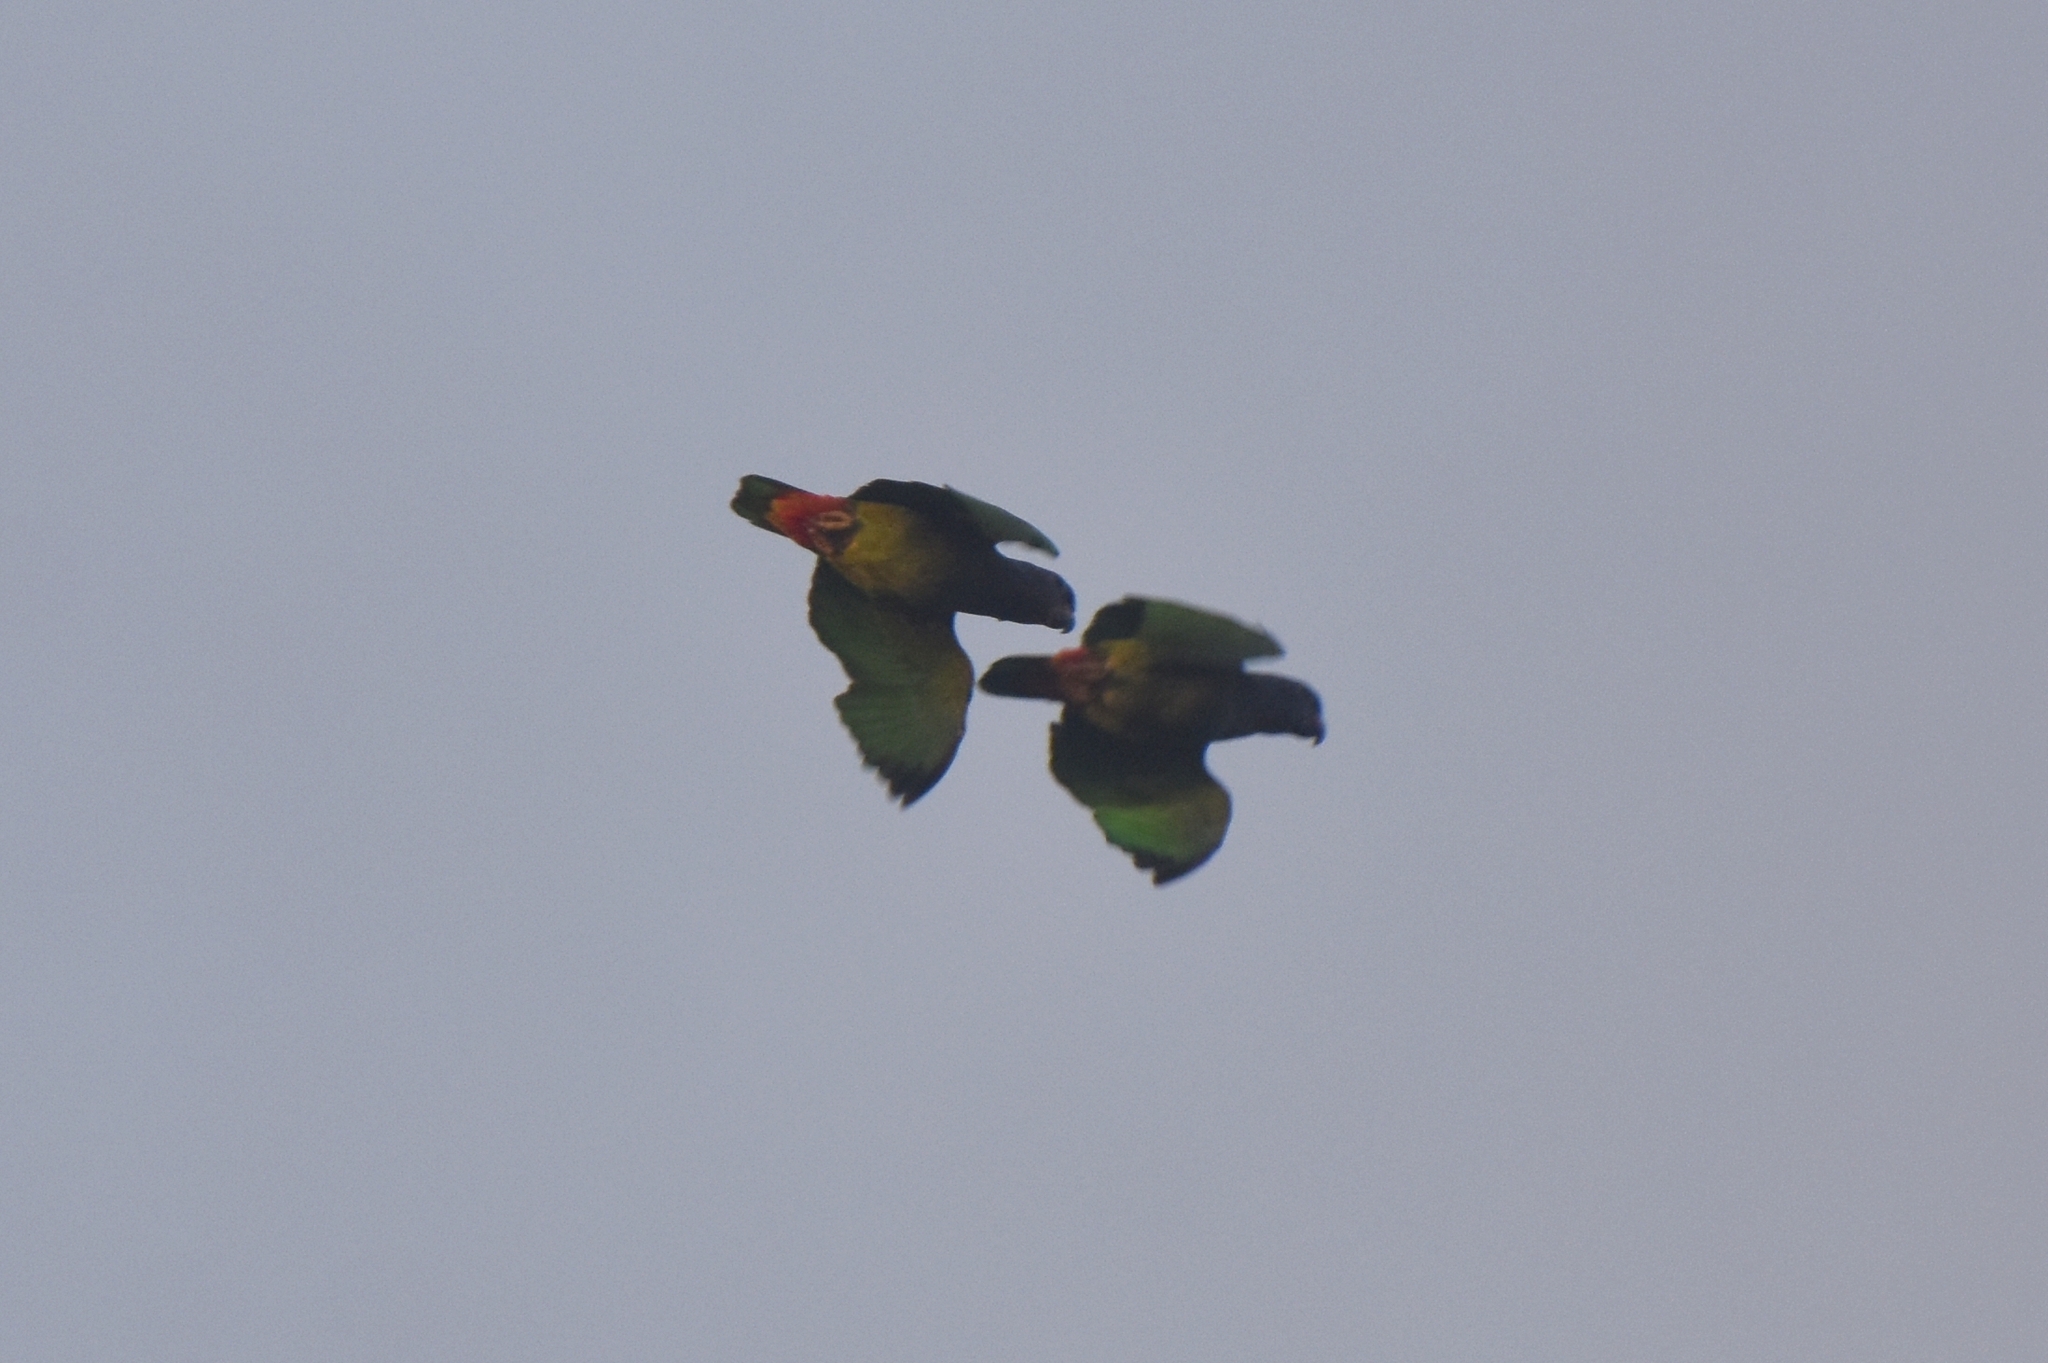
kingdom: Animalia
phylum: Chordata
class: Aves
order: Psittaciformes
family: Psittacidae
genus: Pionus
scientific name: Pionus menstruus
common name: Blue-headed parrot
